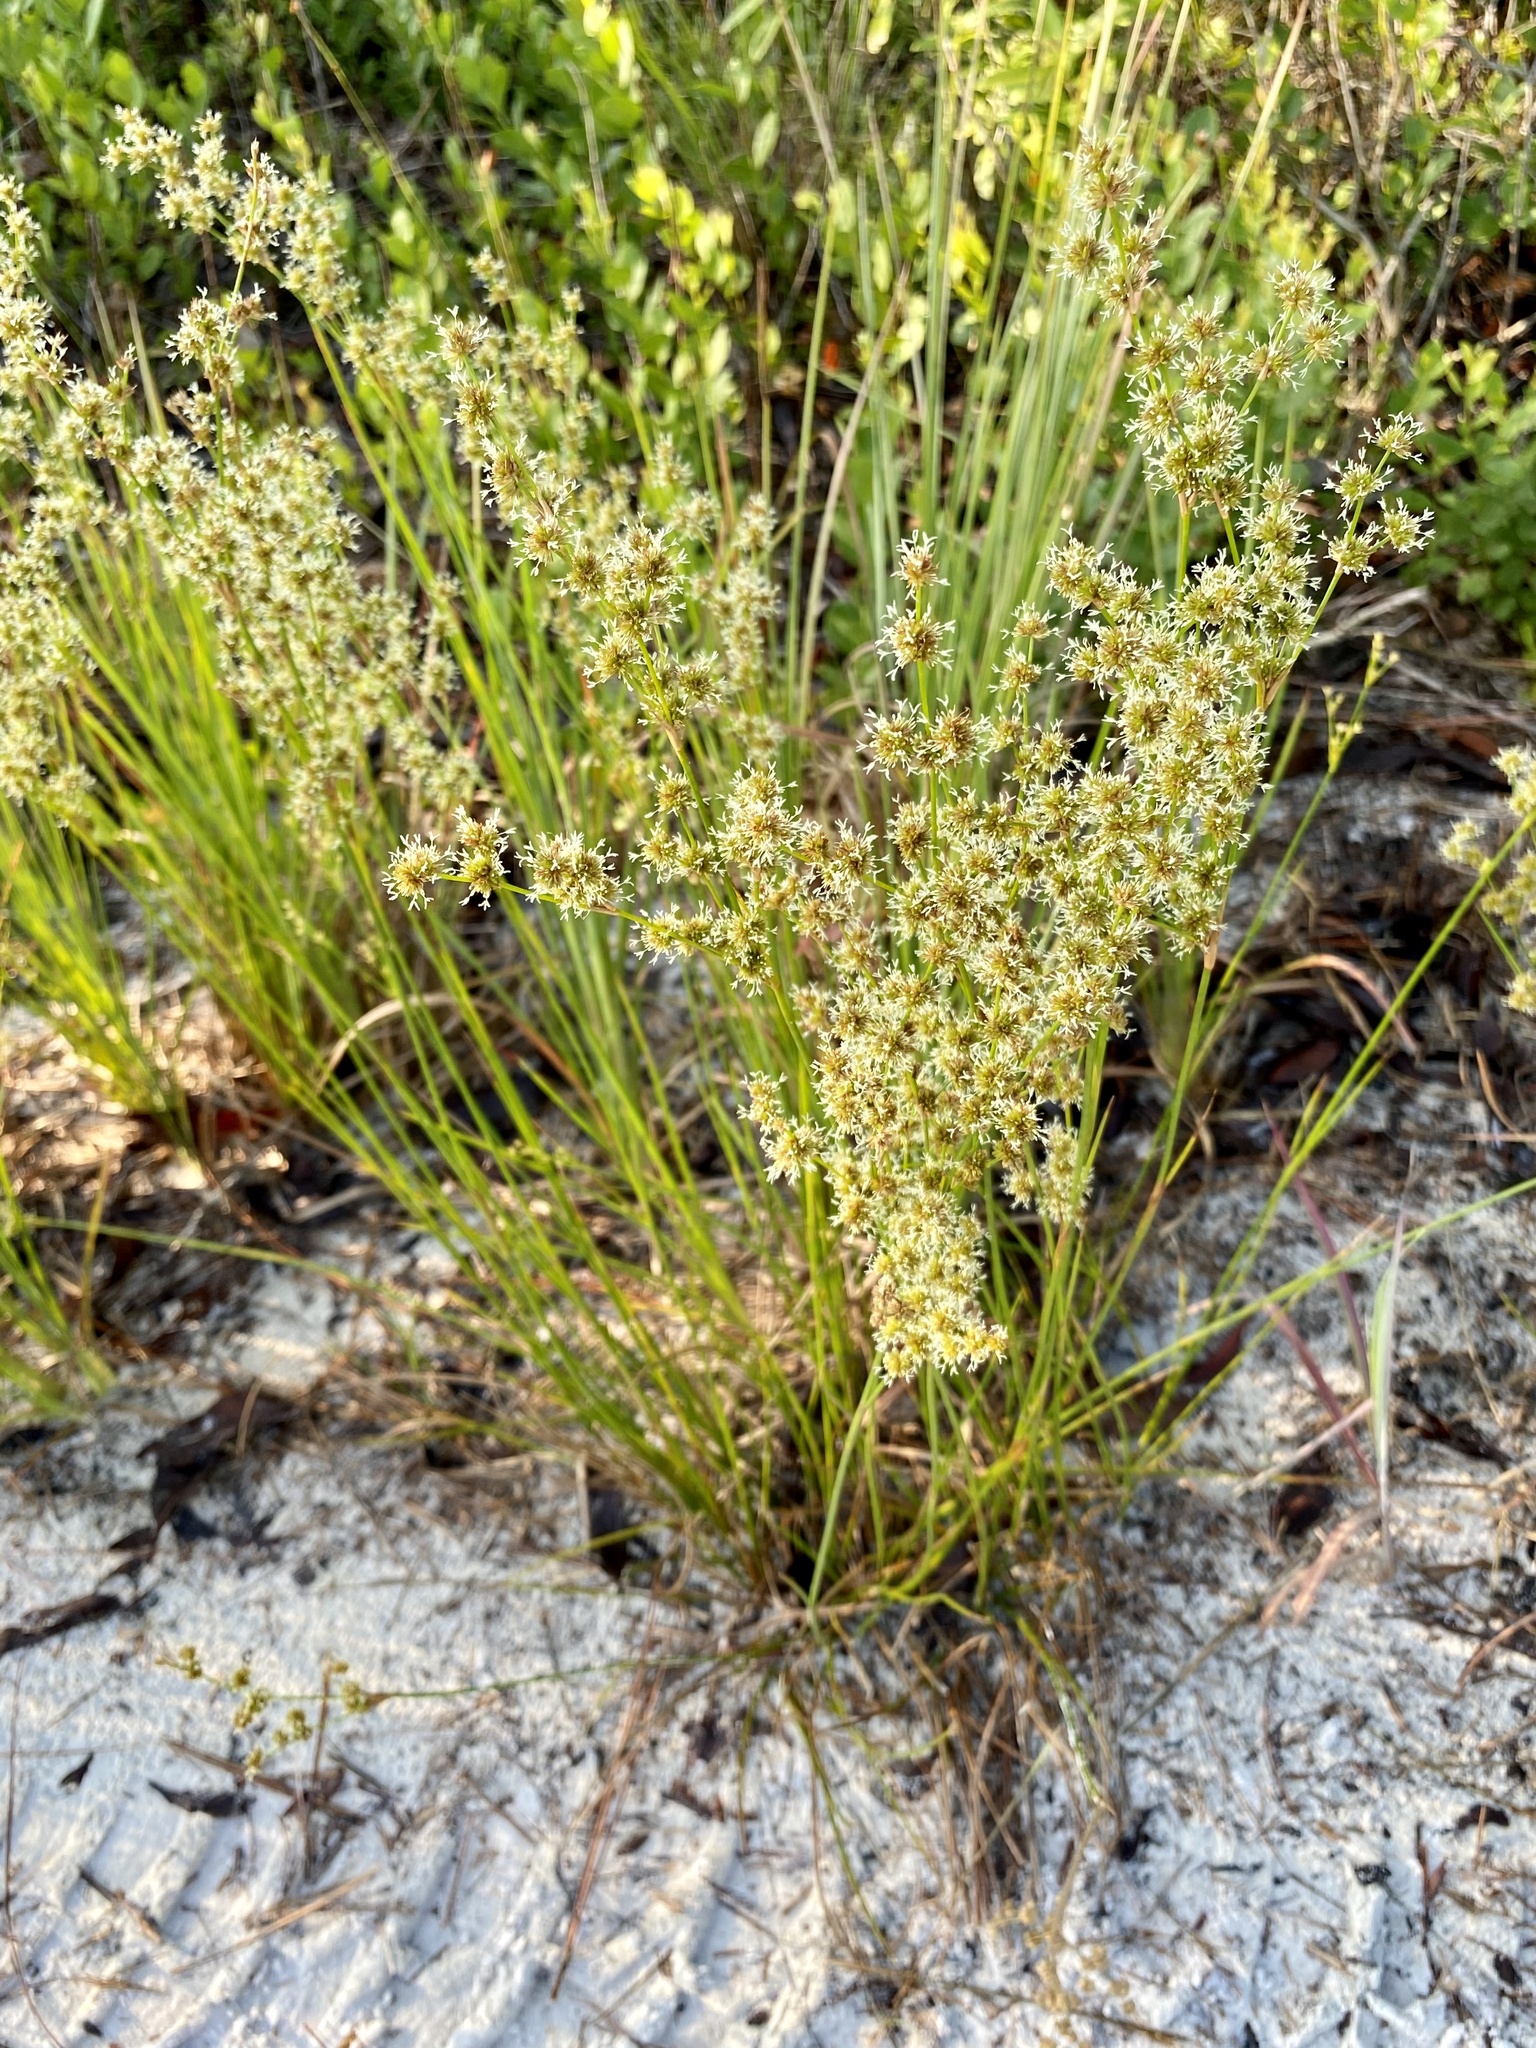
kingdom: Plantae
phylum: Tracheophyta
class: Liliopsida
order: Poales
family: Juncaceae
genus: Juncus
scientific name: Juncus scirpoides
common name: Needlepod rush
